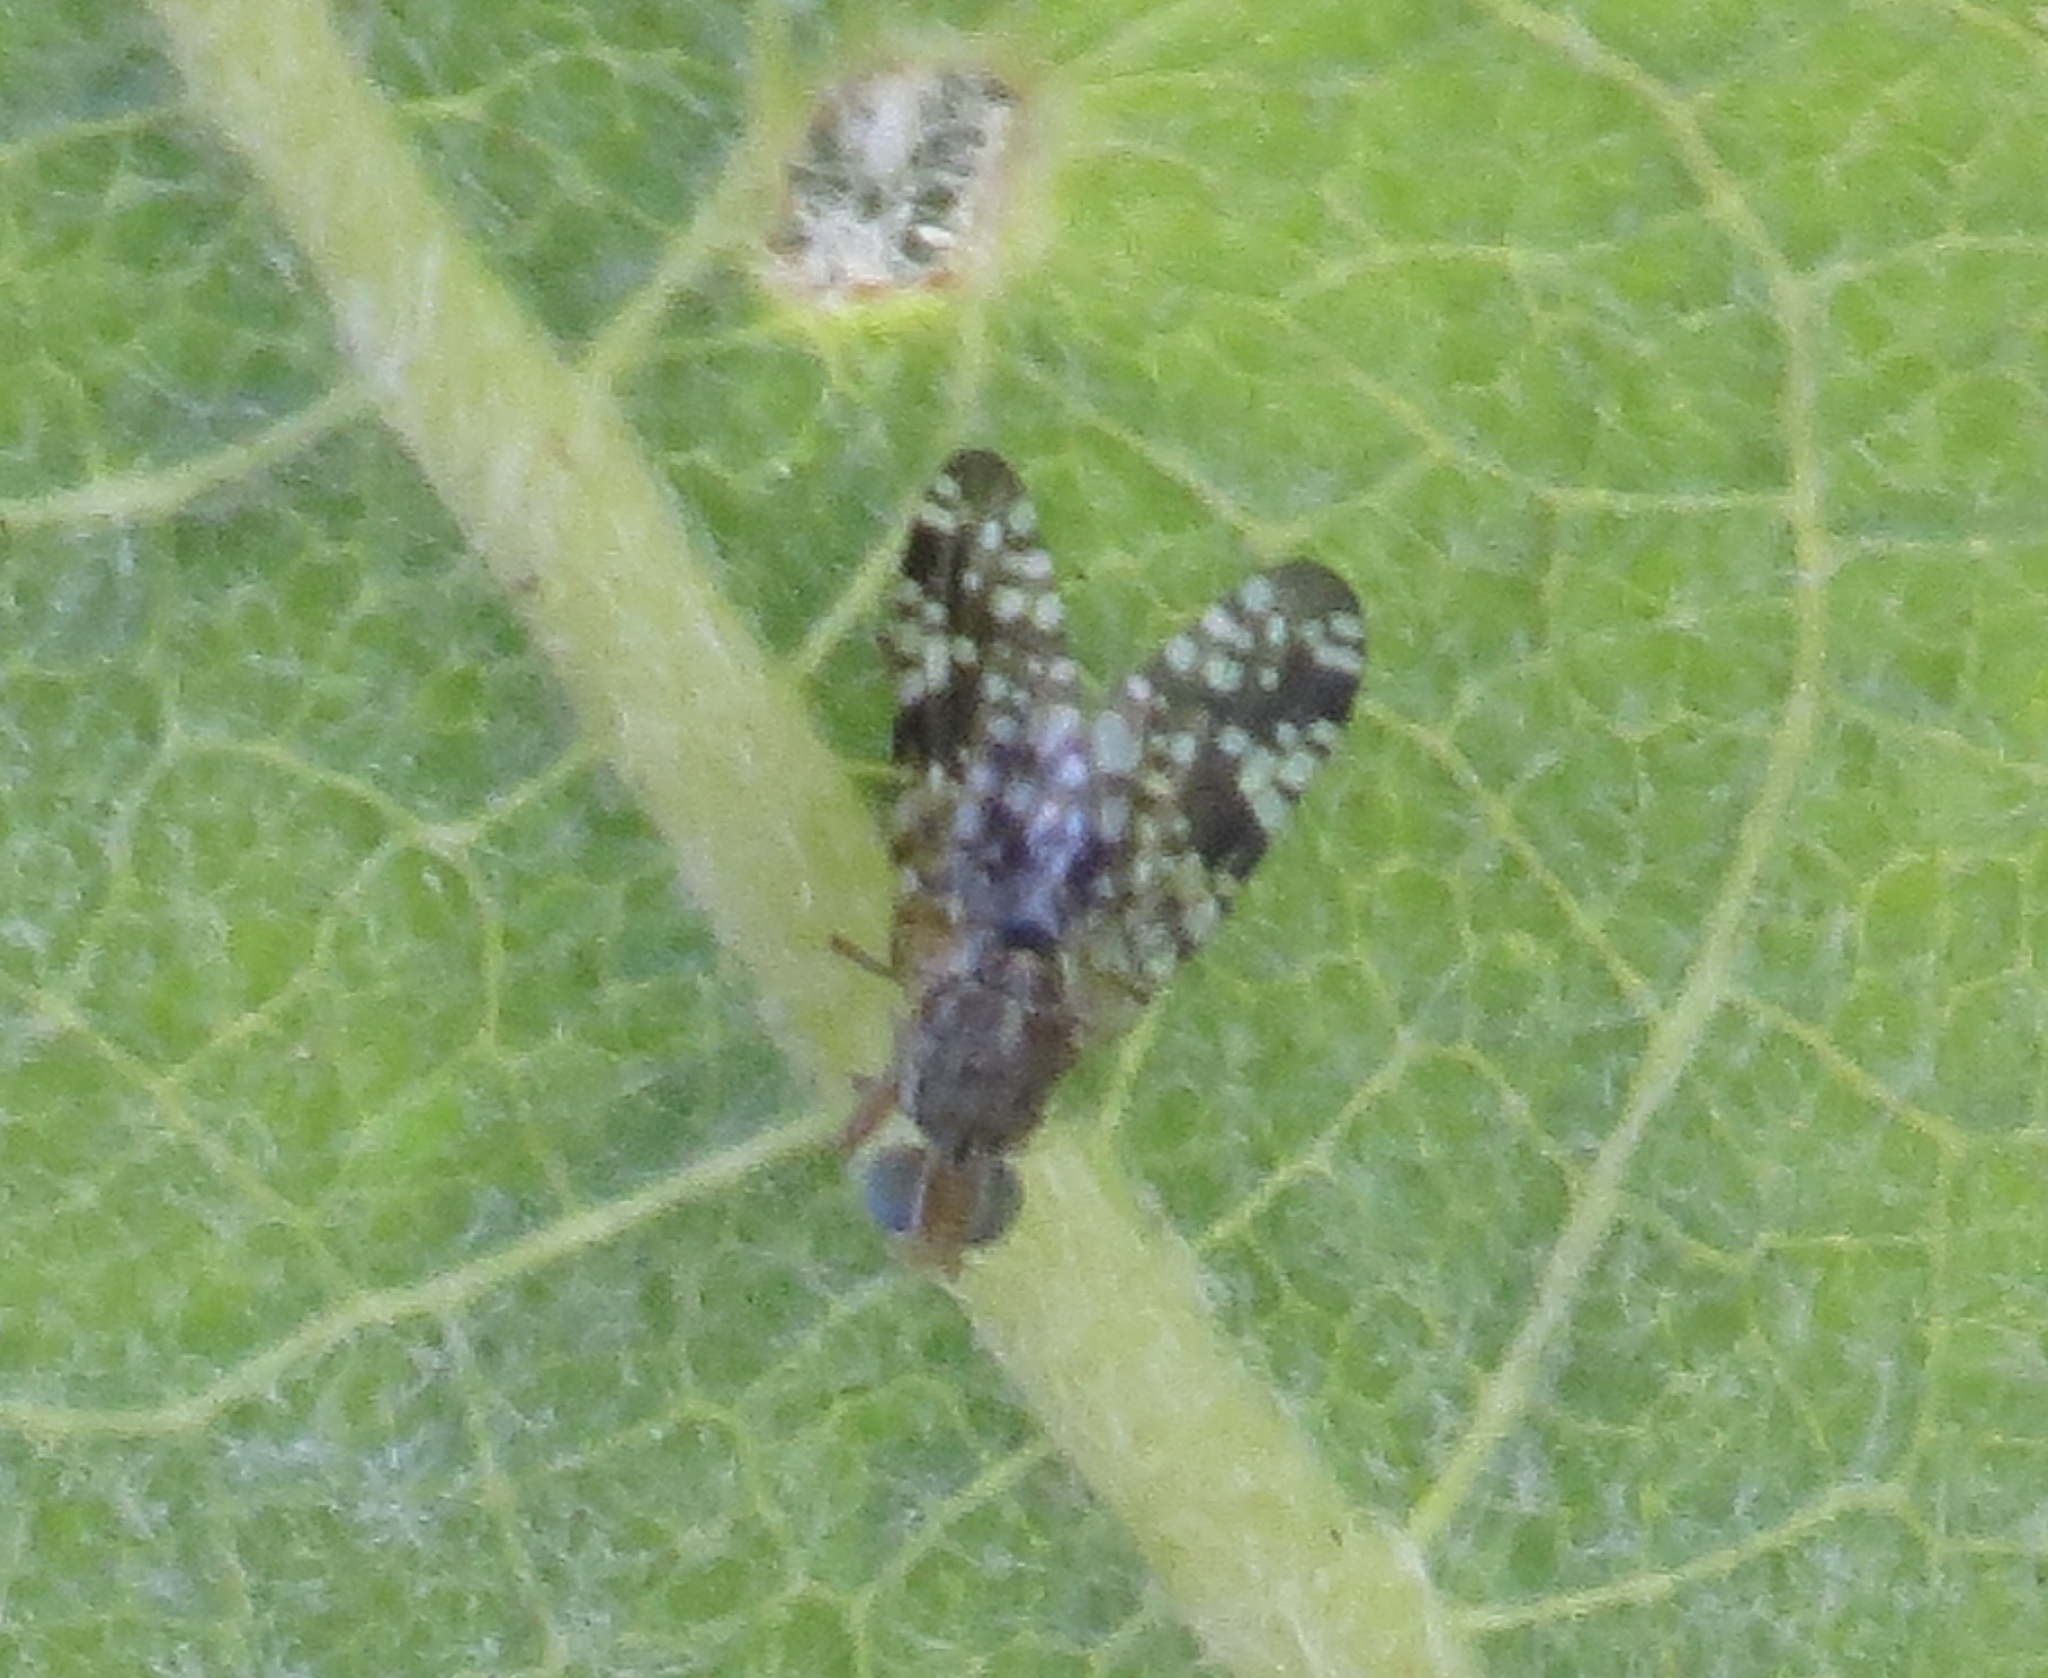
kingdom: Animalia
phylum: Arthropoda
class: Insecta
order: Diptera
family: Tephritidae
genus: Neotephritis
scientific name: Neotephritis finalis
